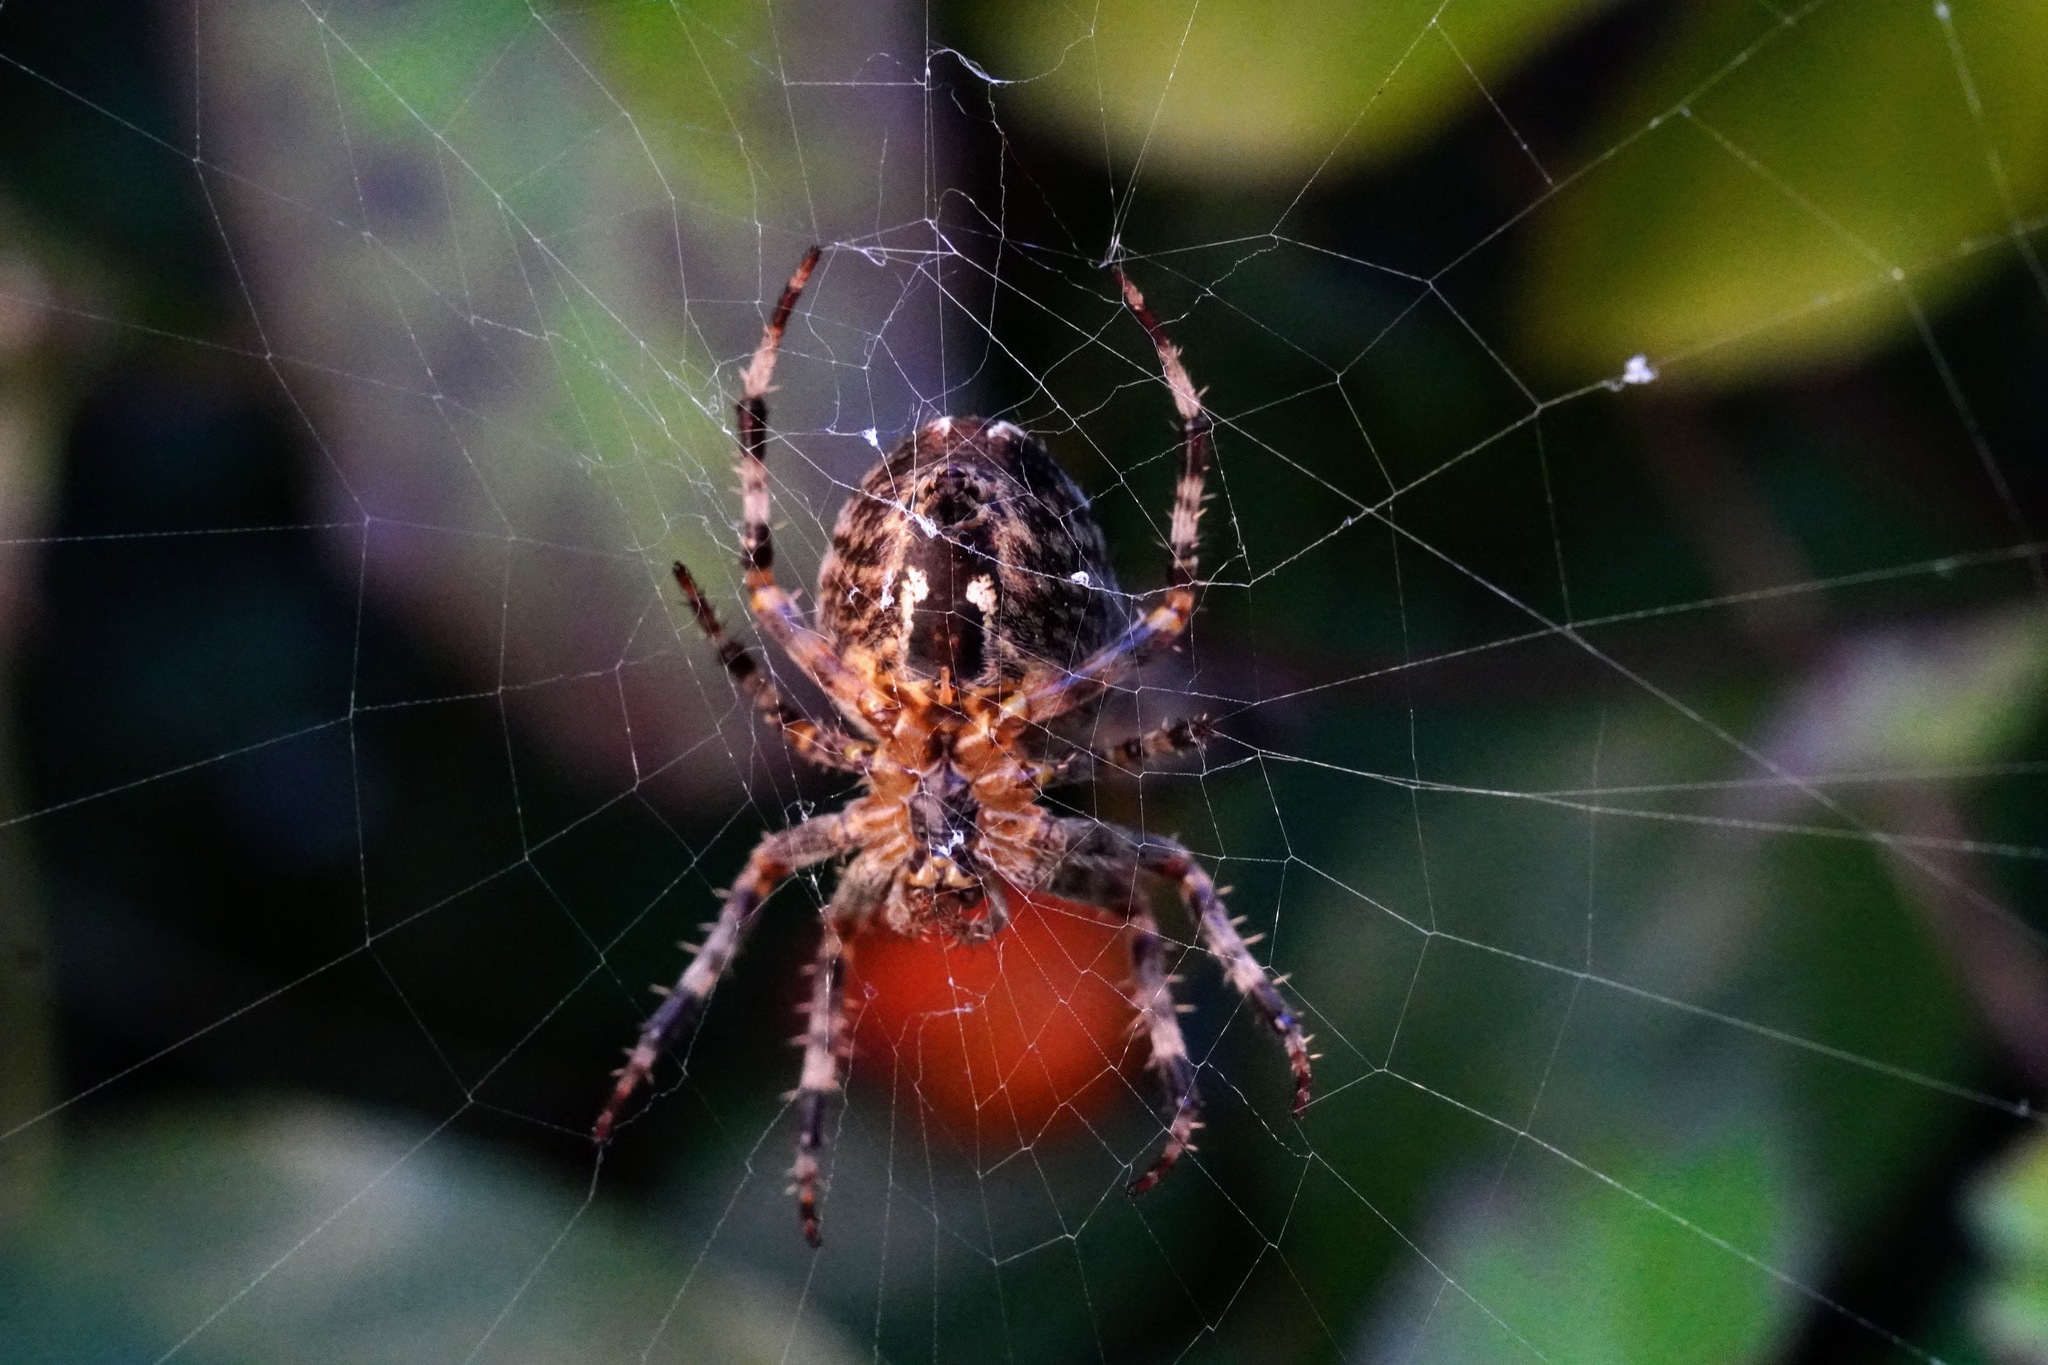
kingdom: Animalia
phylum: Arthropoda
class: Arachnida
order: Araneae
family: Araneidae
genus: Araneus
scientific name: Araneus diadematus
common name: Cross orbweaver
